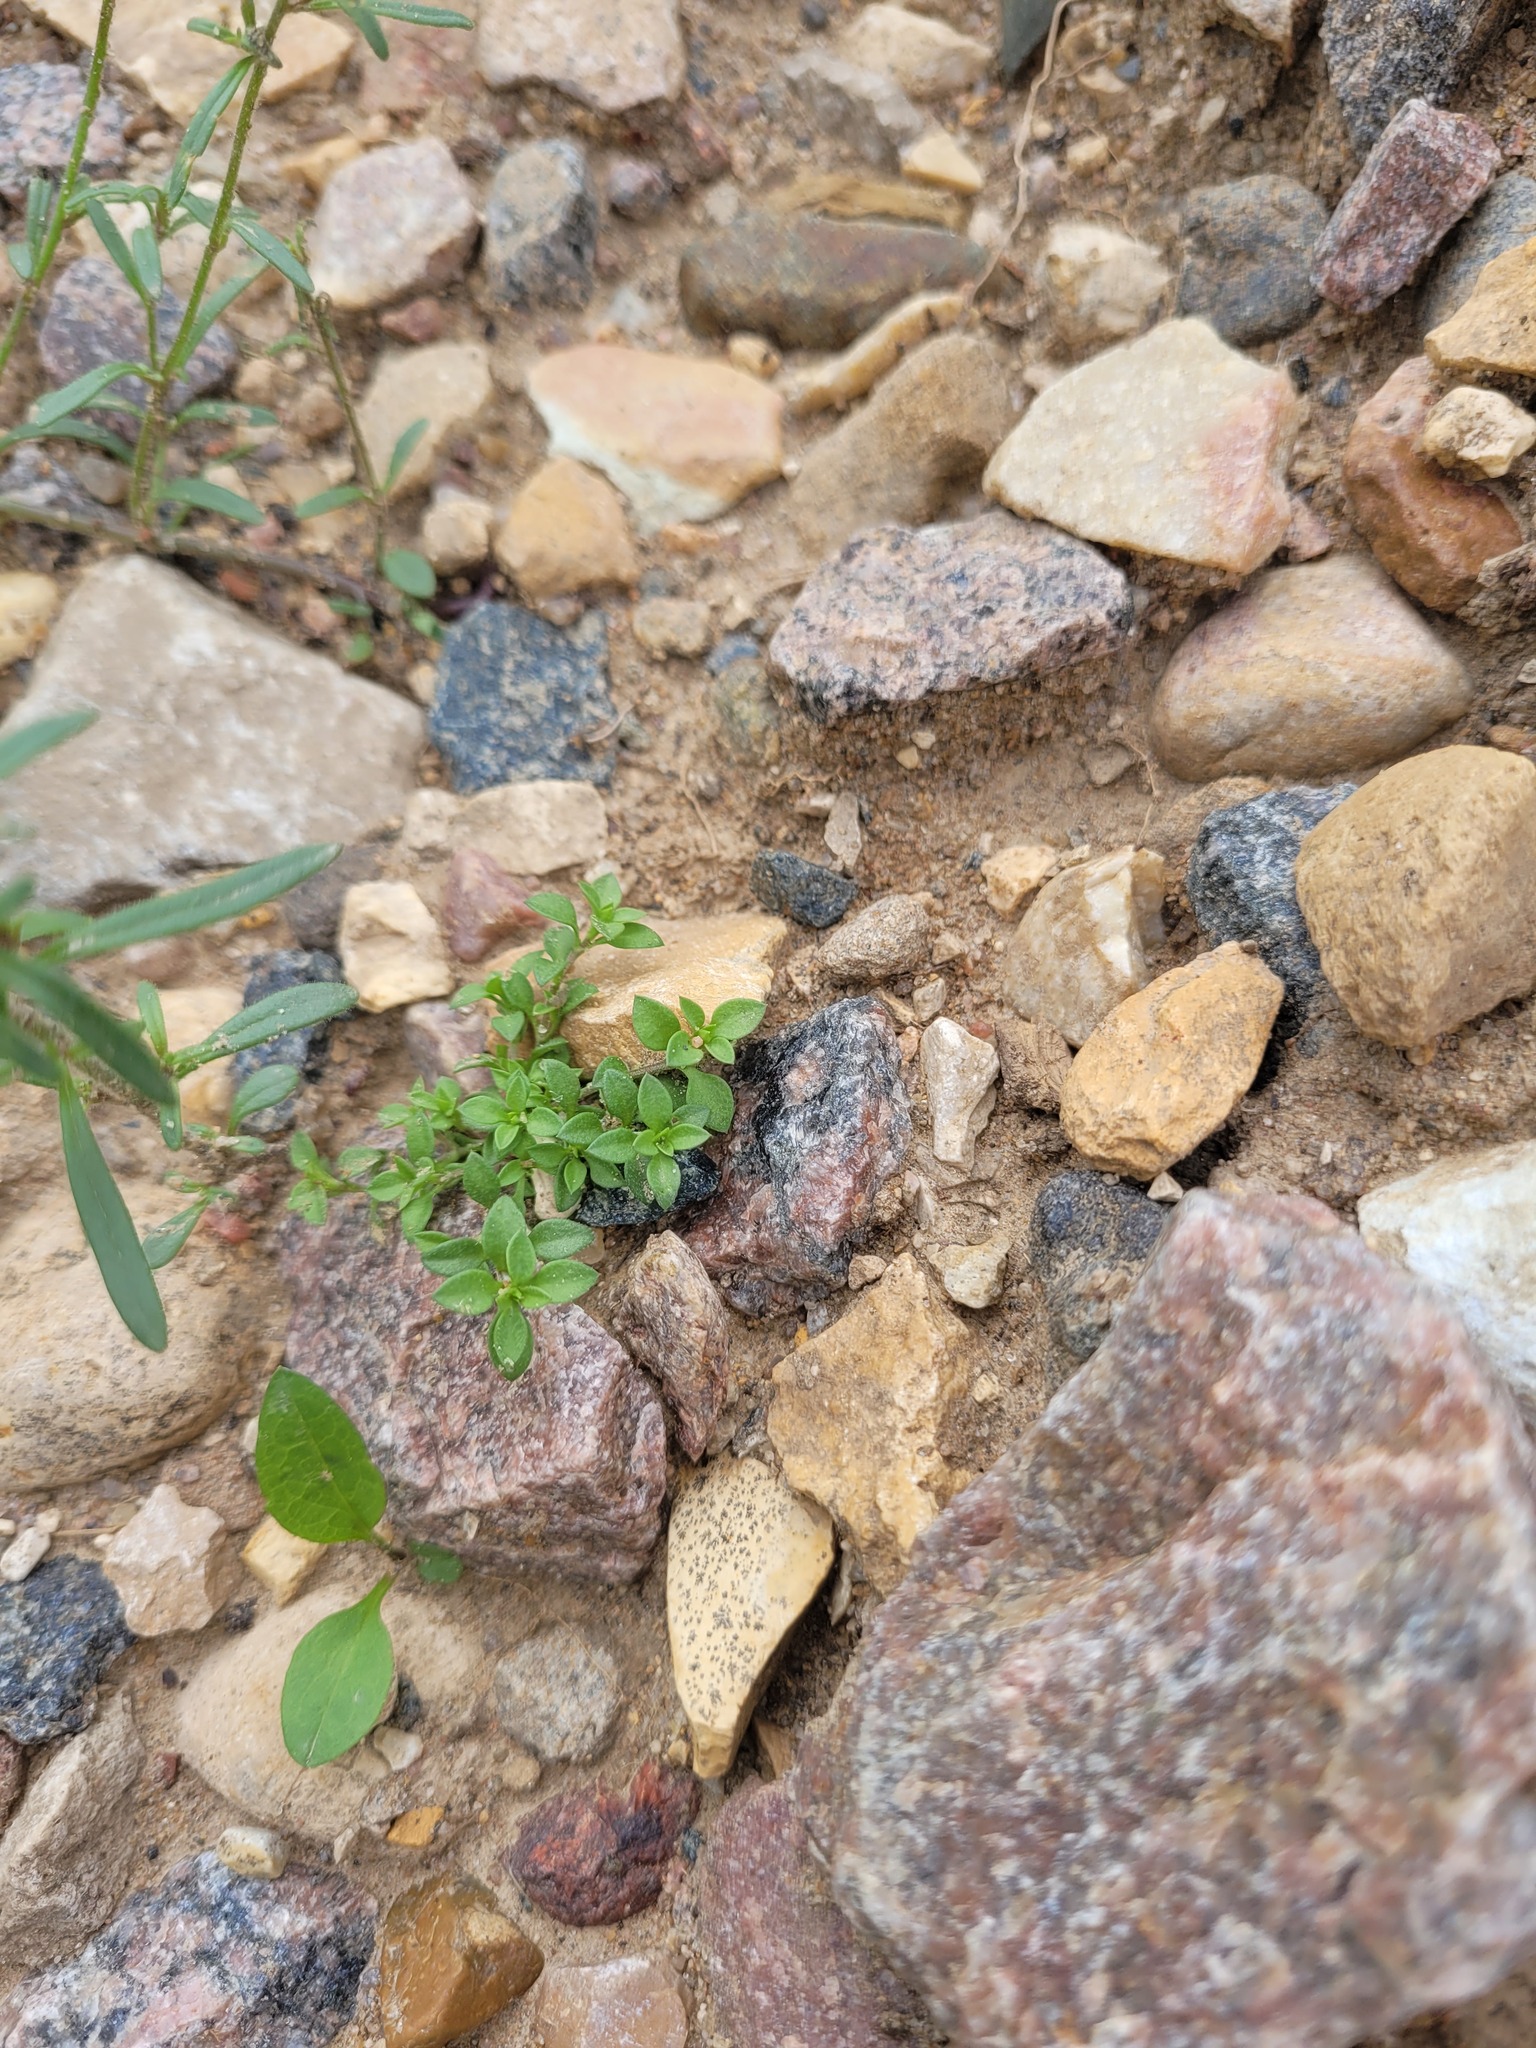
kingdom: Plantae
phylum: Tracheophyta
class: Magnoliopsida
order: Caryophyllales
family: Caryophyllaceae
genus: Arenaria
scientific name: Arenaria serpyllifolia
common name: Thyme-leaved sandwort
